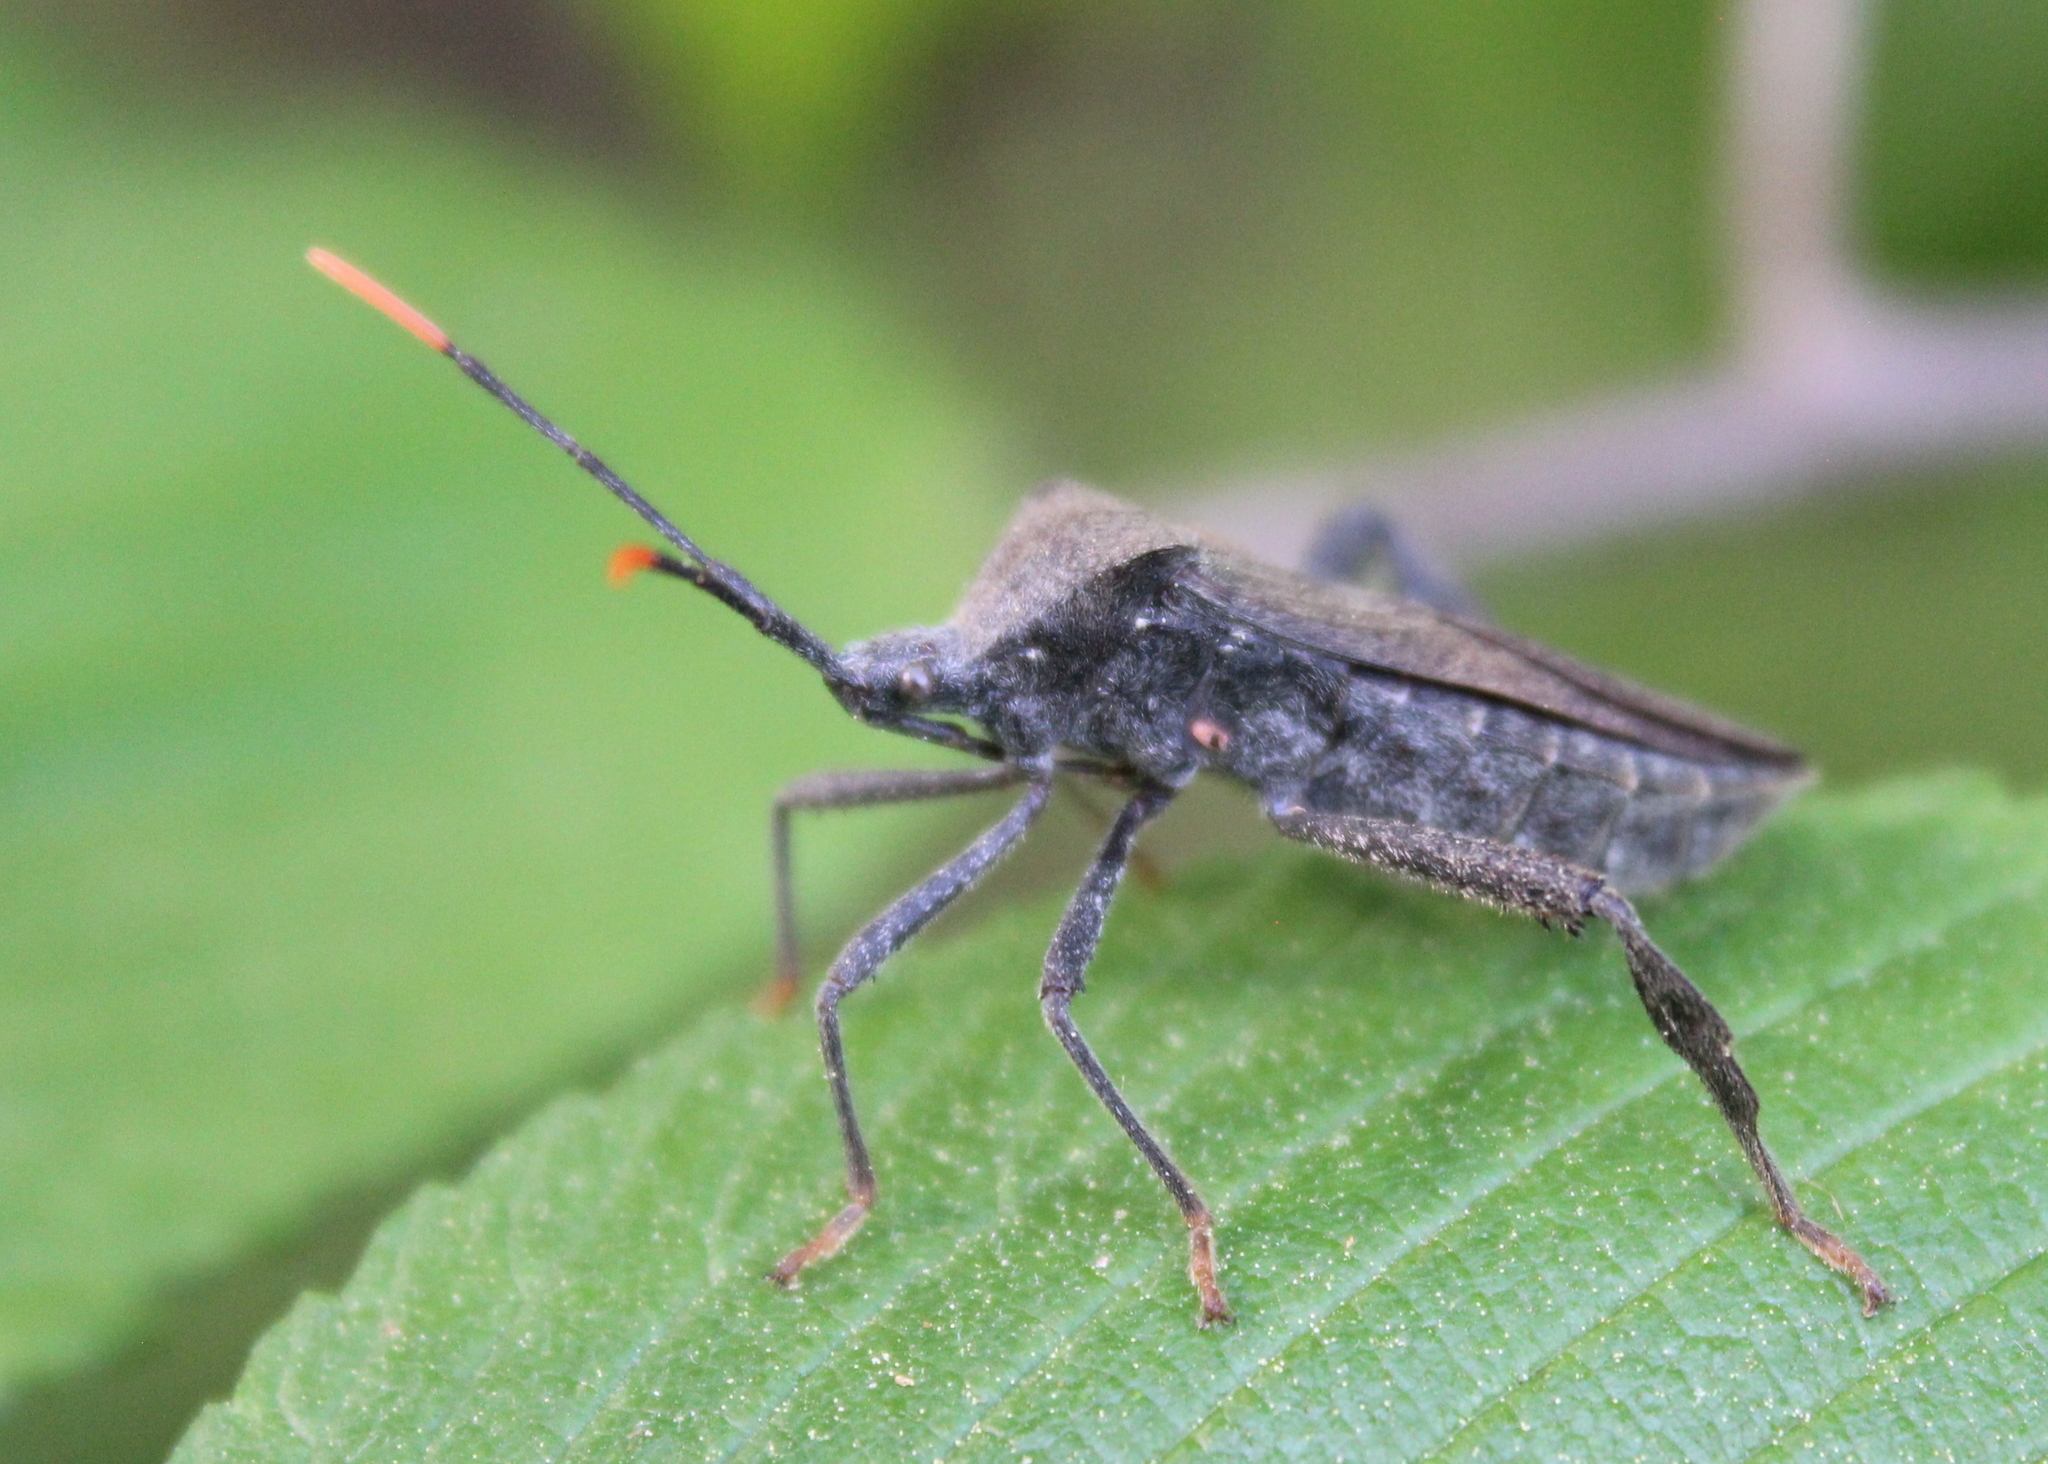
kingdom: Animalia
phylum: Arthropoda
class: Insecta
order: Hemiptera
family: Coreidae
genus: Acanthocephala
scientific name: Acanthocephala terminalis
